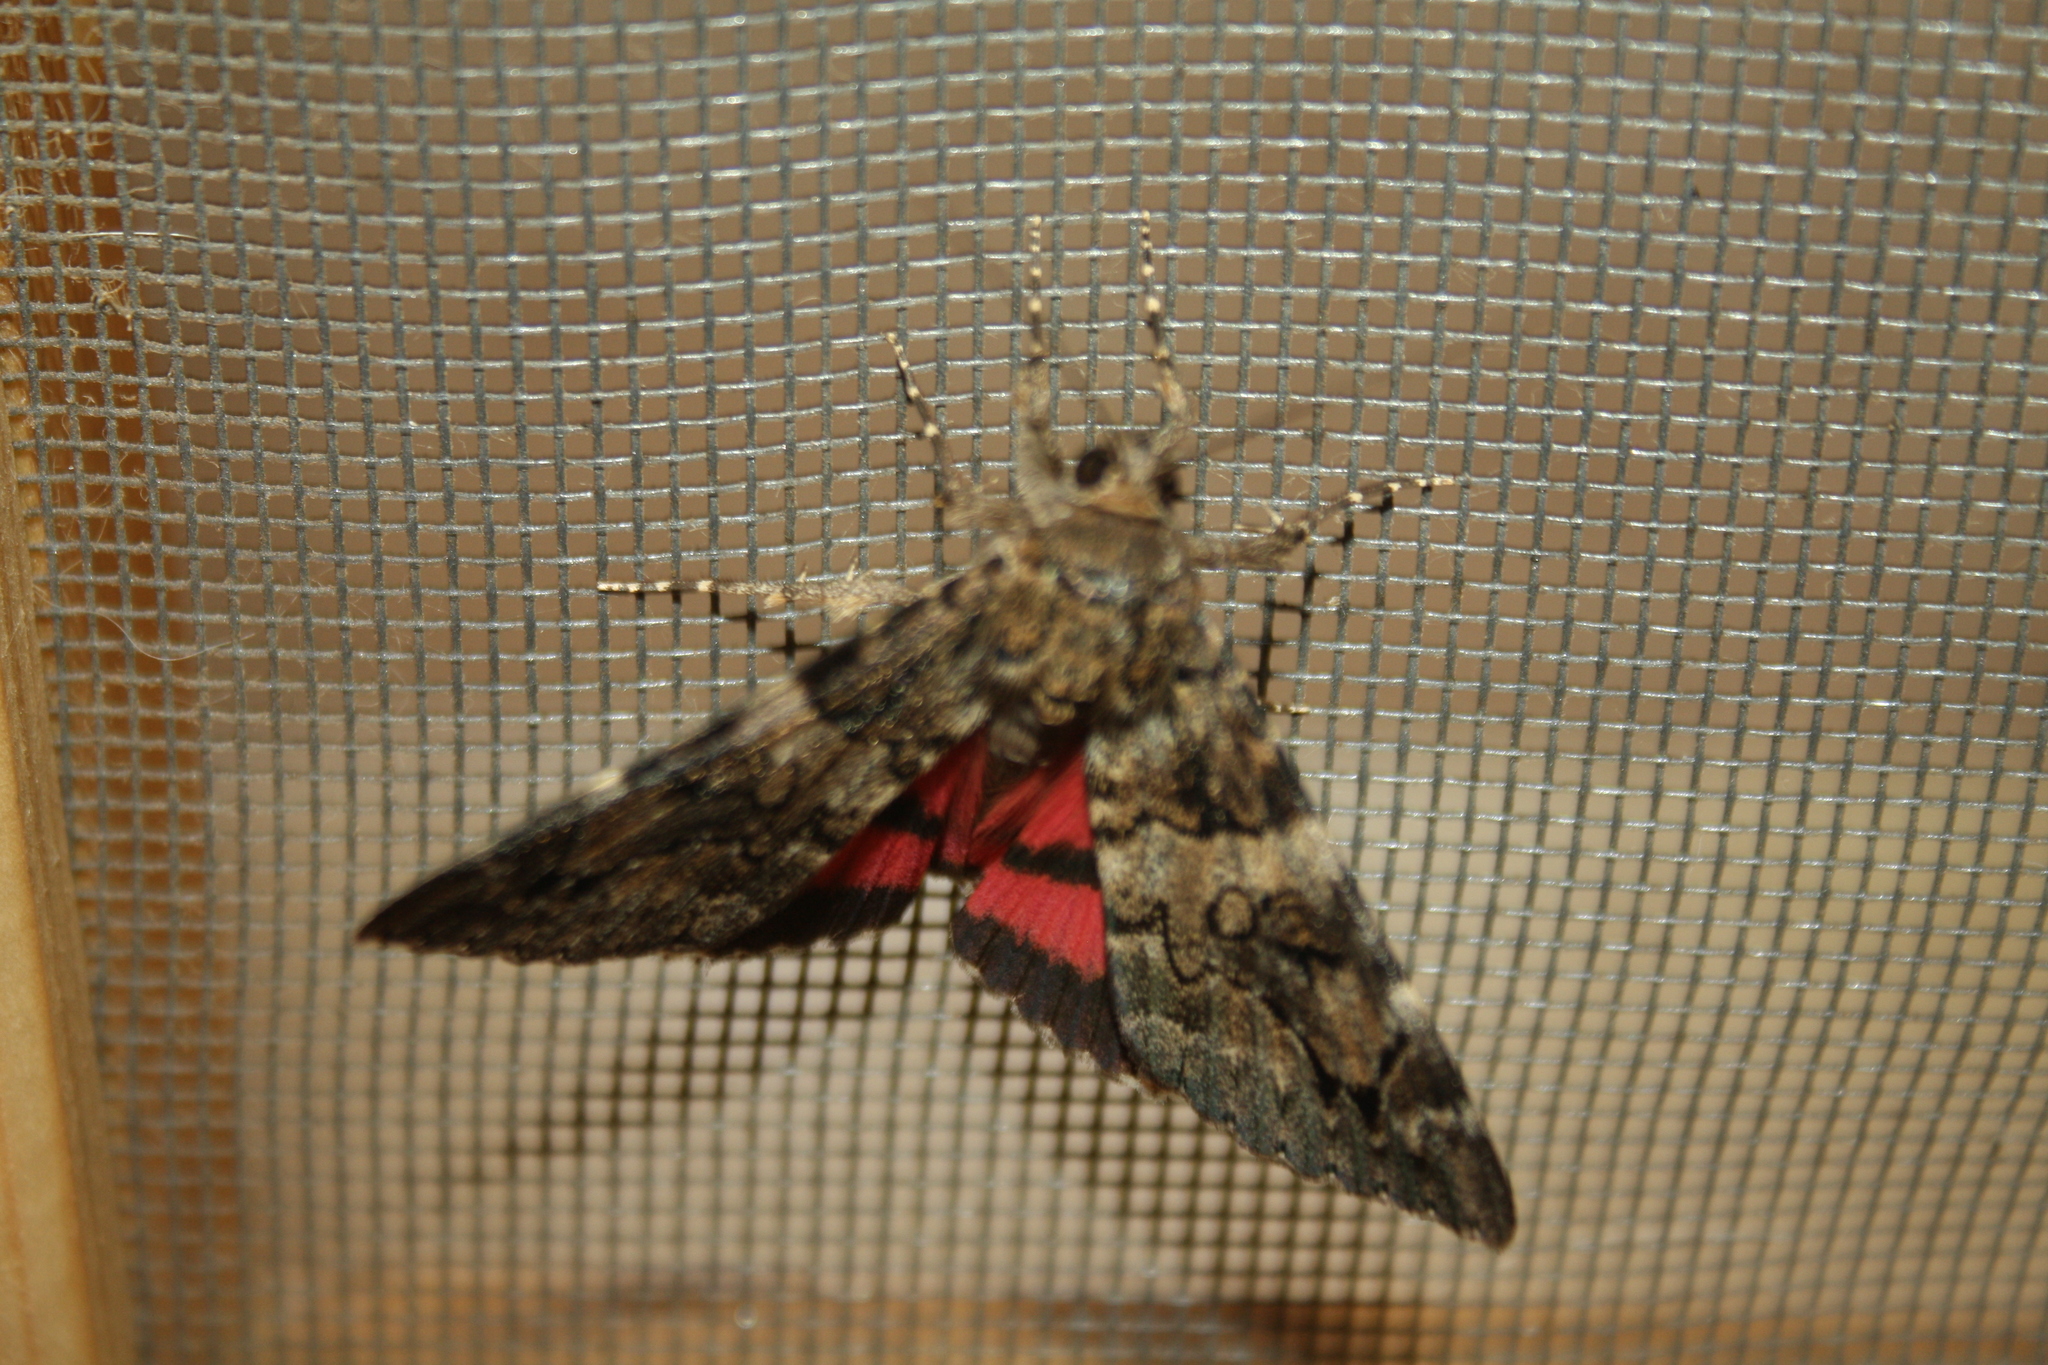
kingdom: Animalia
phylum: Arthropoda
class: Insecta
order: Lepidoptera
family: Erebidae
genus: Catocala
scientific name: Catocala coniuncta
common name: Minsmere crimson underwing
